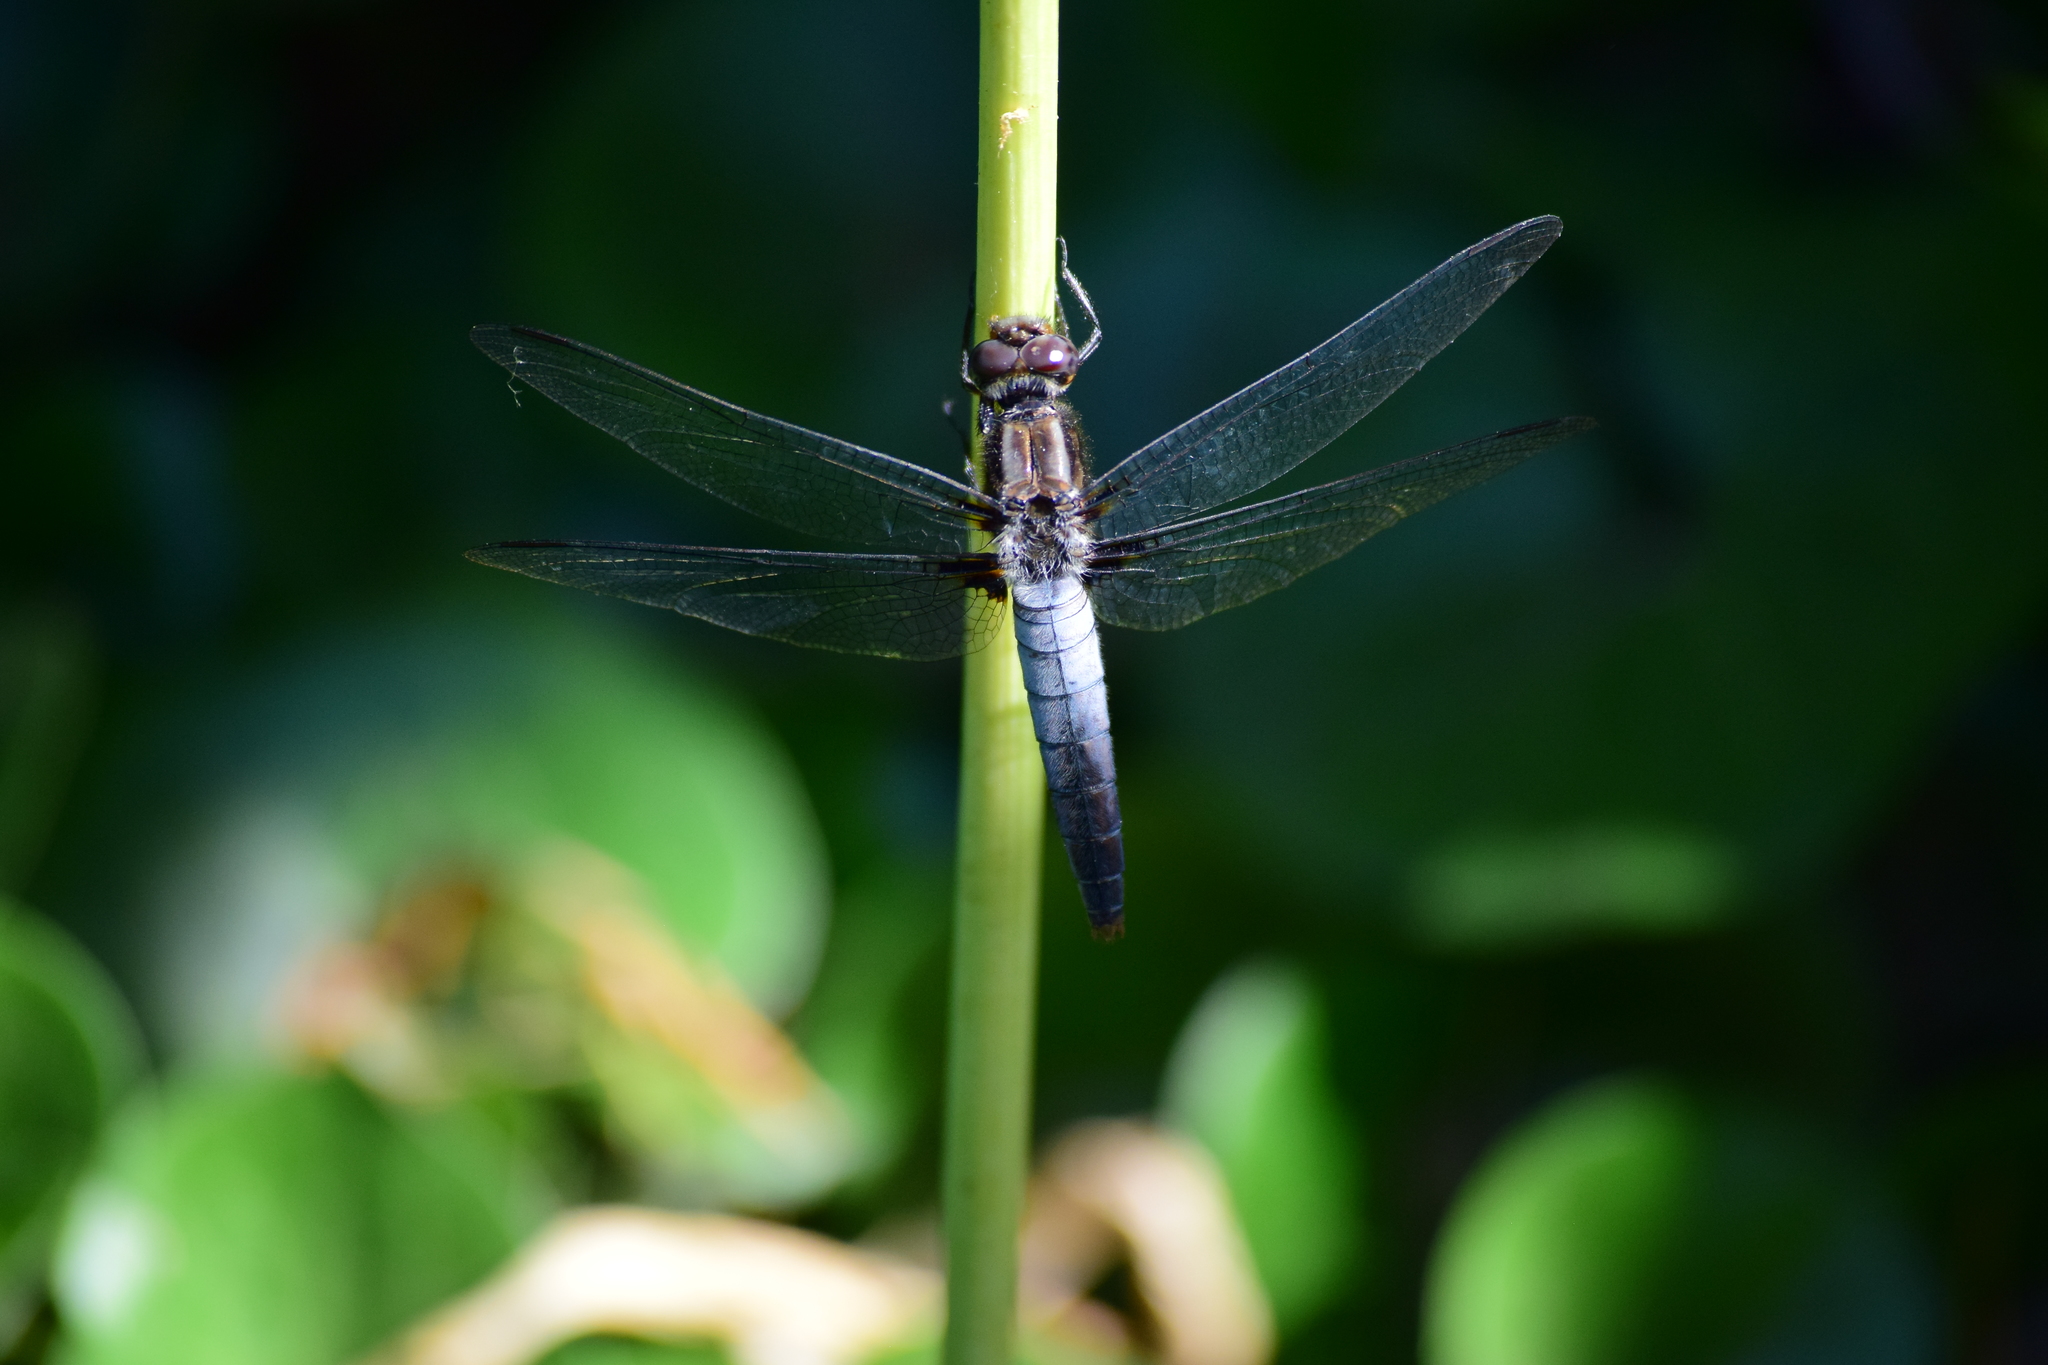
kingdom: Animalia
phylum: Arthropoda
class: Insecta
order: Odonata
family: Libellulidae
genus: Ladona
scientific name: Ladona julia
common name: Chalk-fronted corporal
